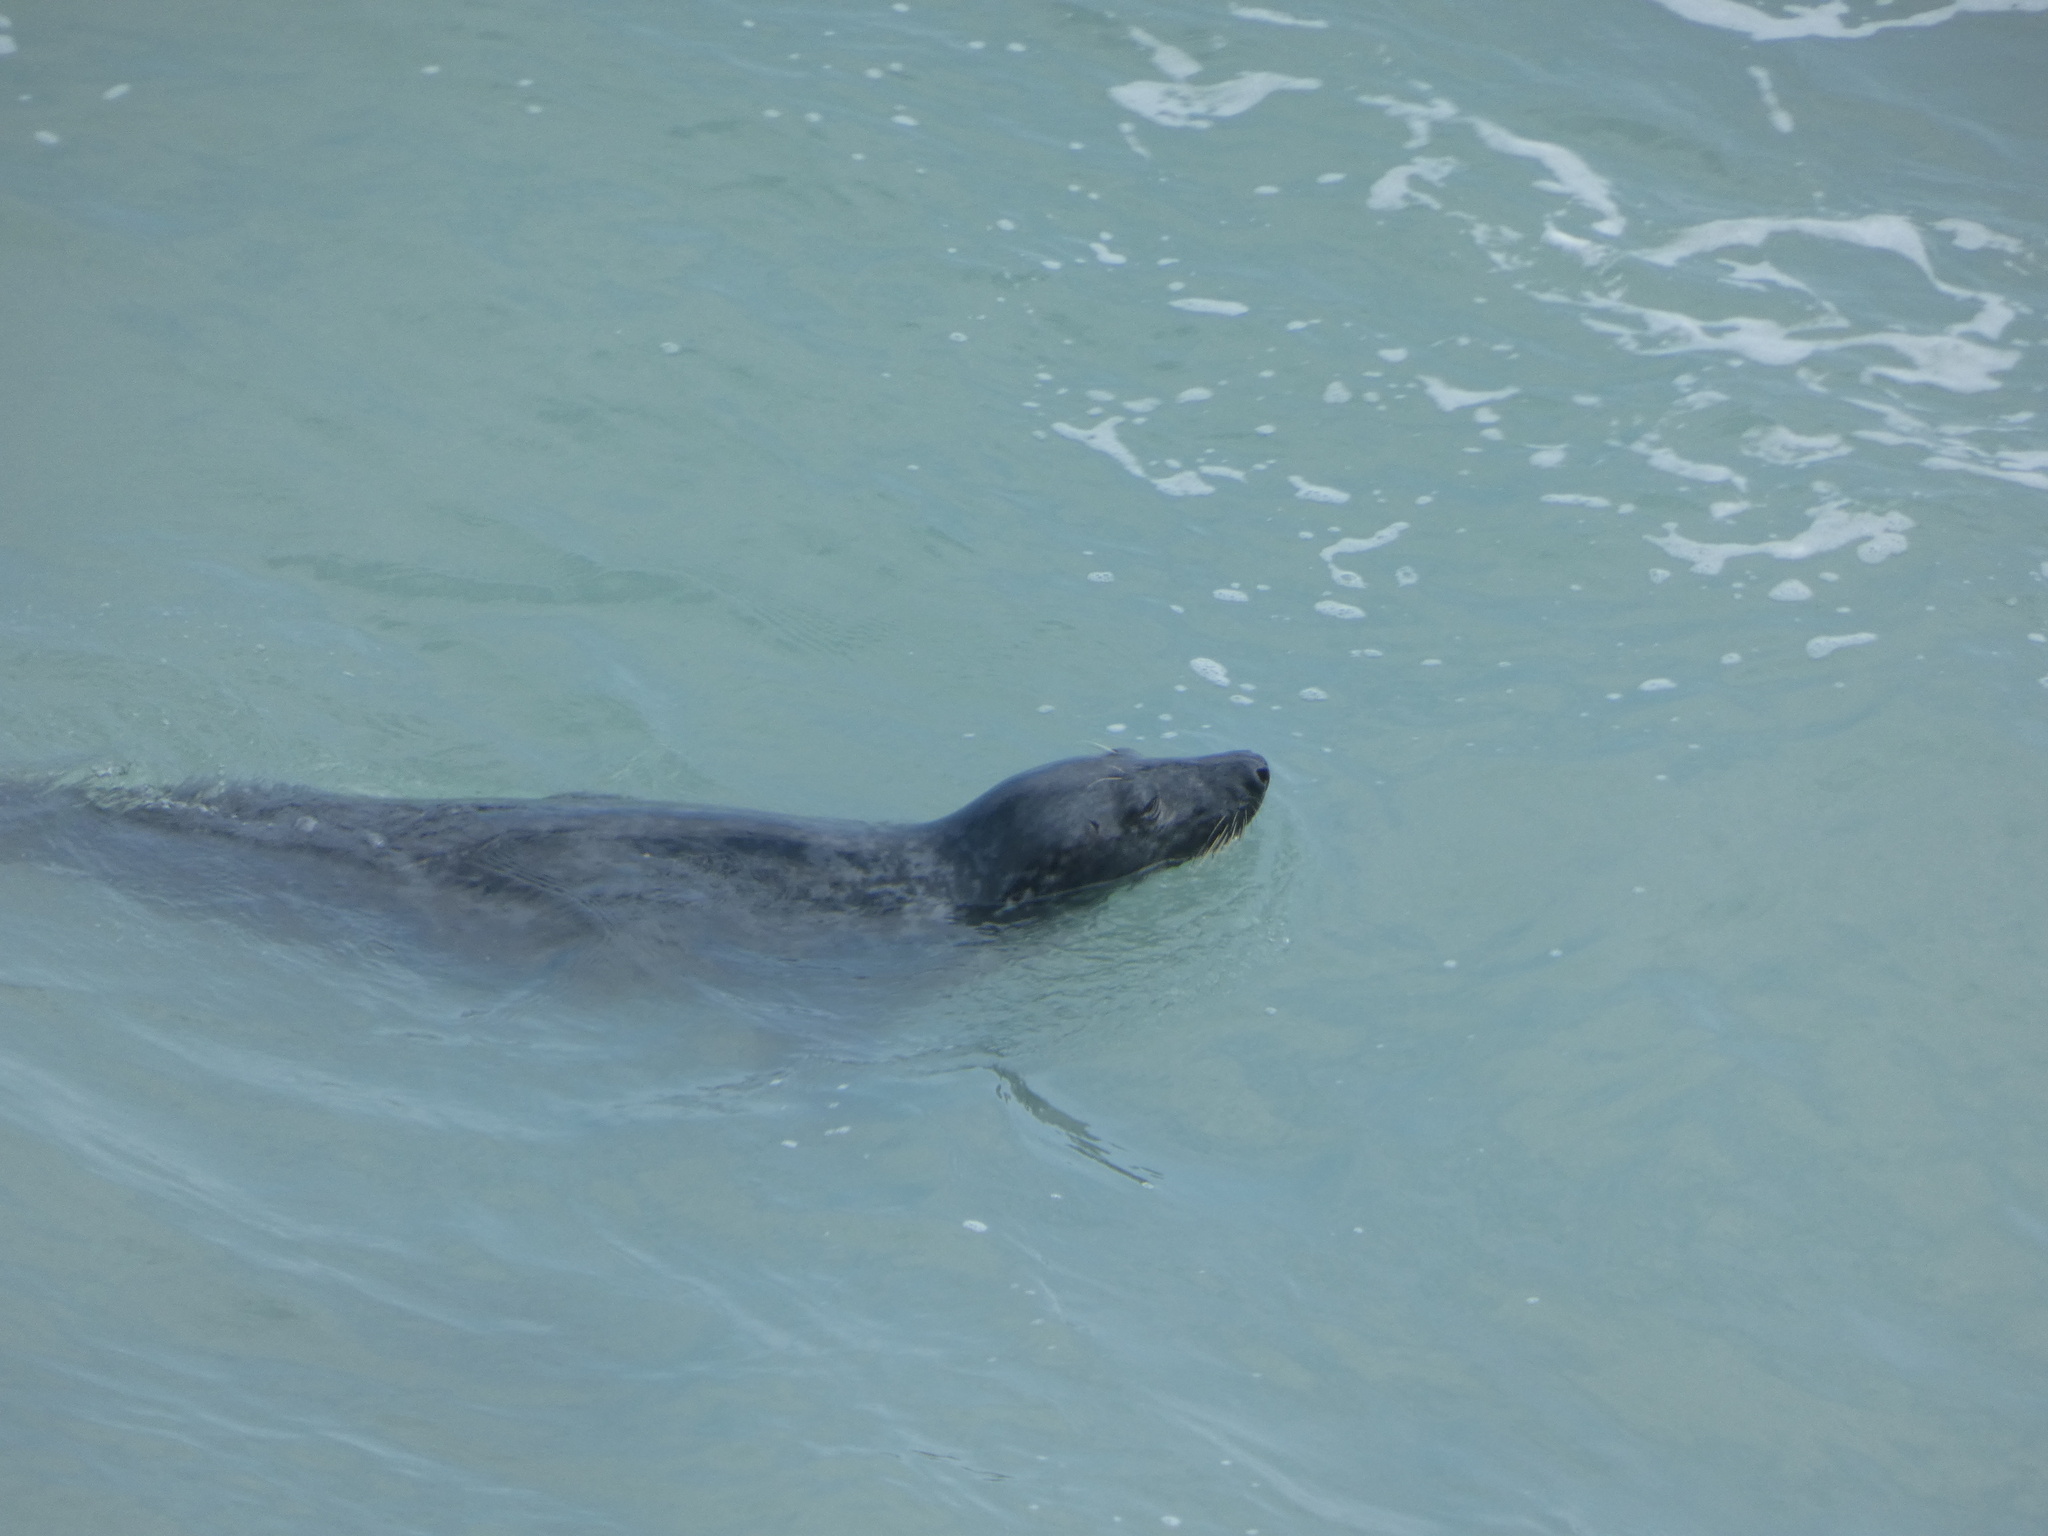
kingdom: Animalia
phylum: Chordata
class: Mammalia
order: Carnivora
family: Phocidae
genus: Halichoerus
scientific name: Halichoerus grypus
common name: Grey seal
